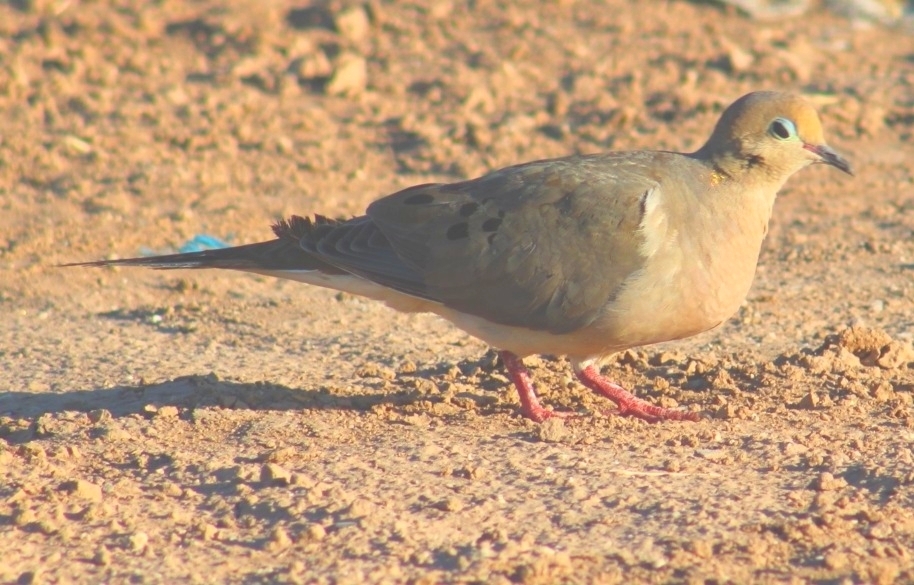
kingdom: Animalia
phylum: Chordata
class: Aves
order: Columbiformes
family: Columbidae
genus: Zenaida
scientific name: Zenaida macroura
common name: Mourning dove
